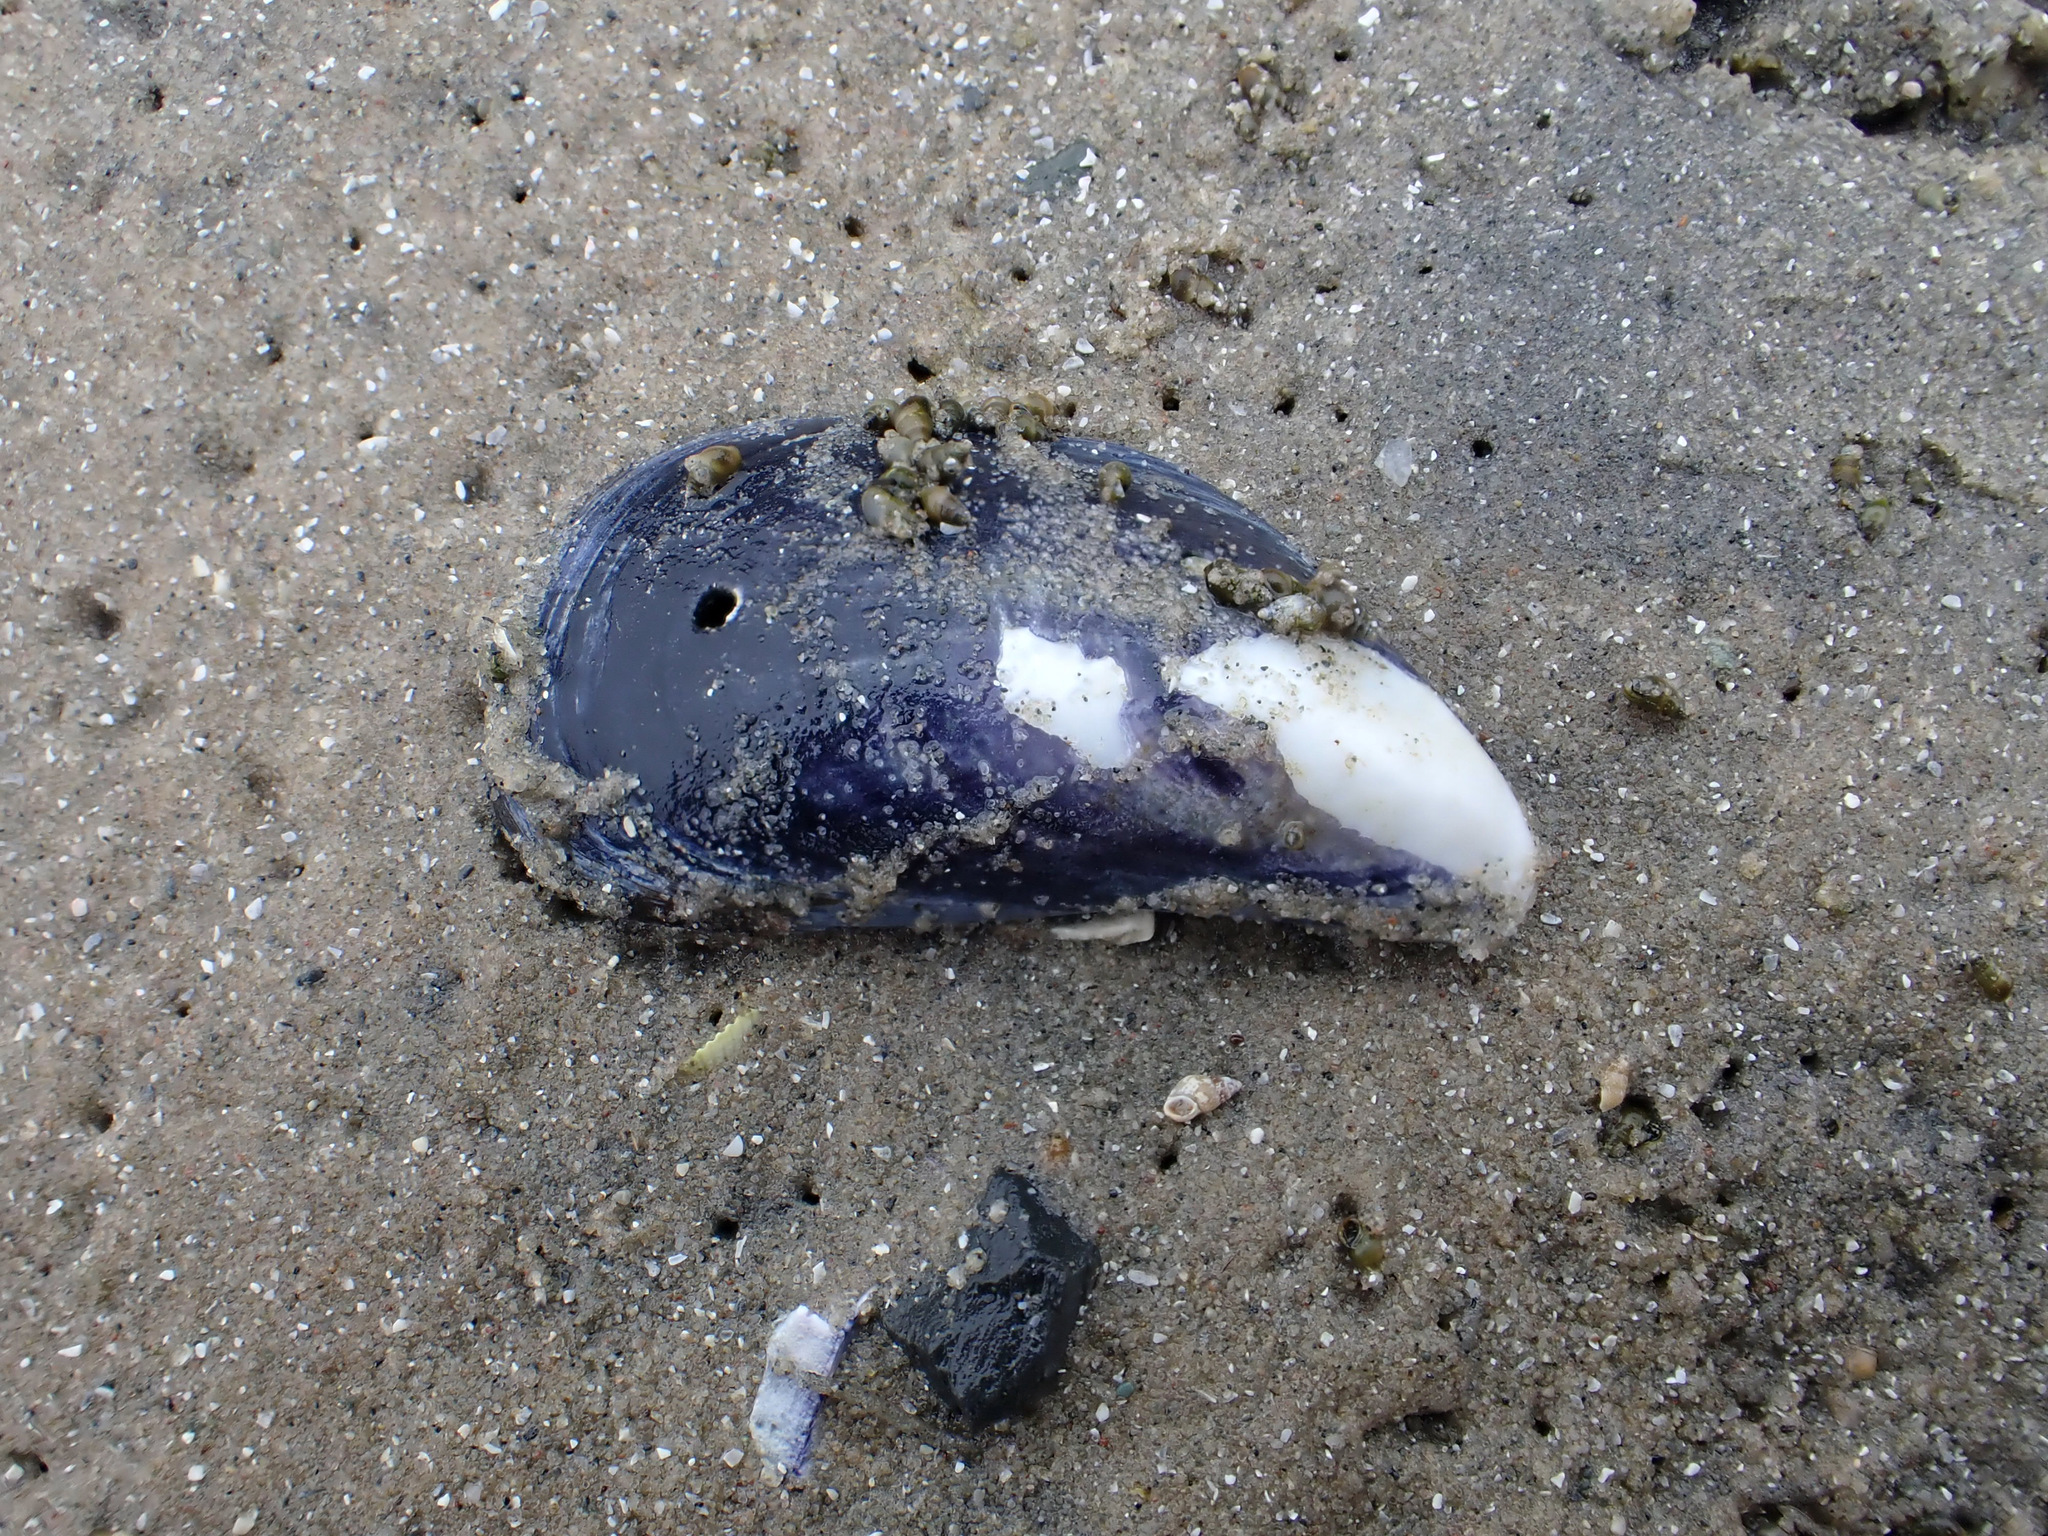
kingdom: Animalia
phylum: Mollusca
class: Bivalvia
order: Mytilida
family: Mytilidae
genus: Mytilus
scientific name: Mytilus edulis
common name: Blue mussel
